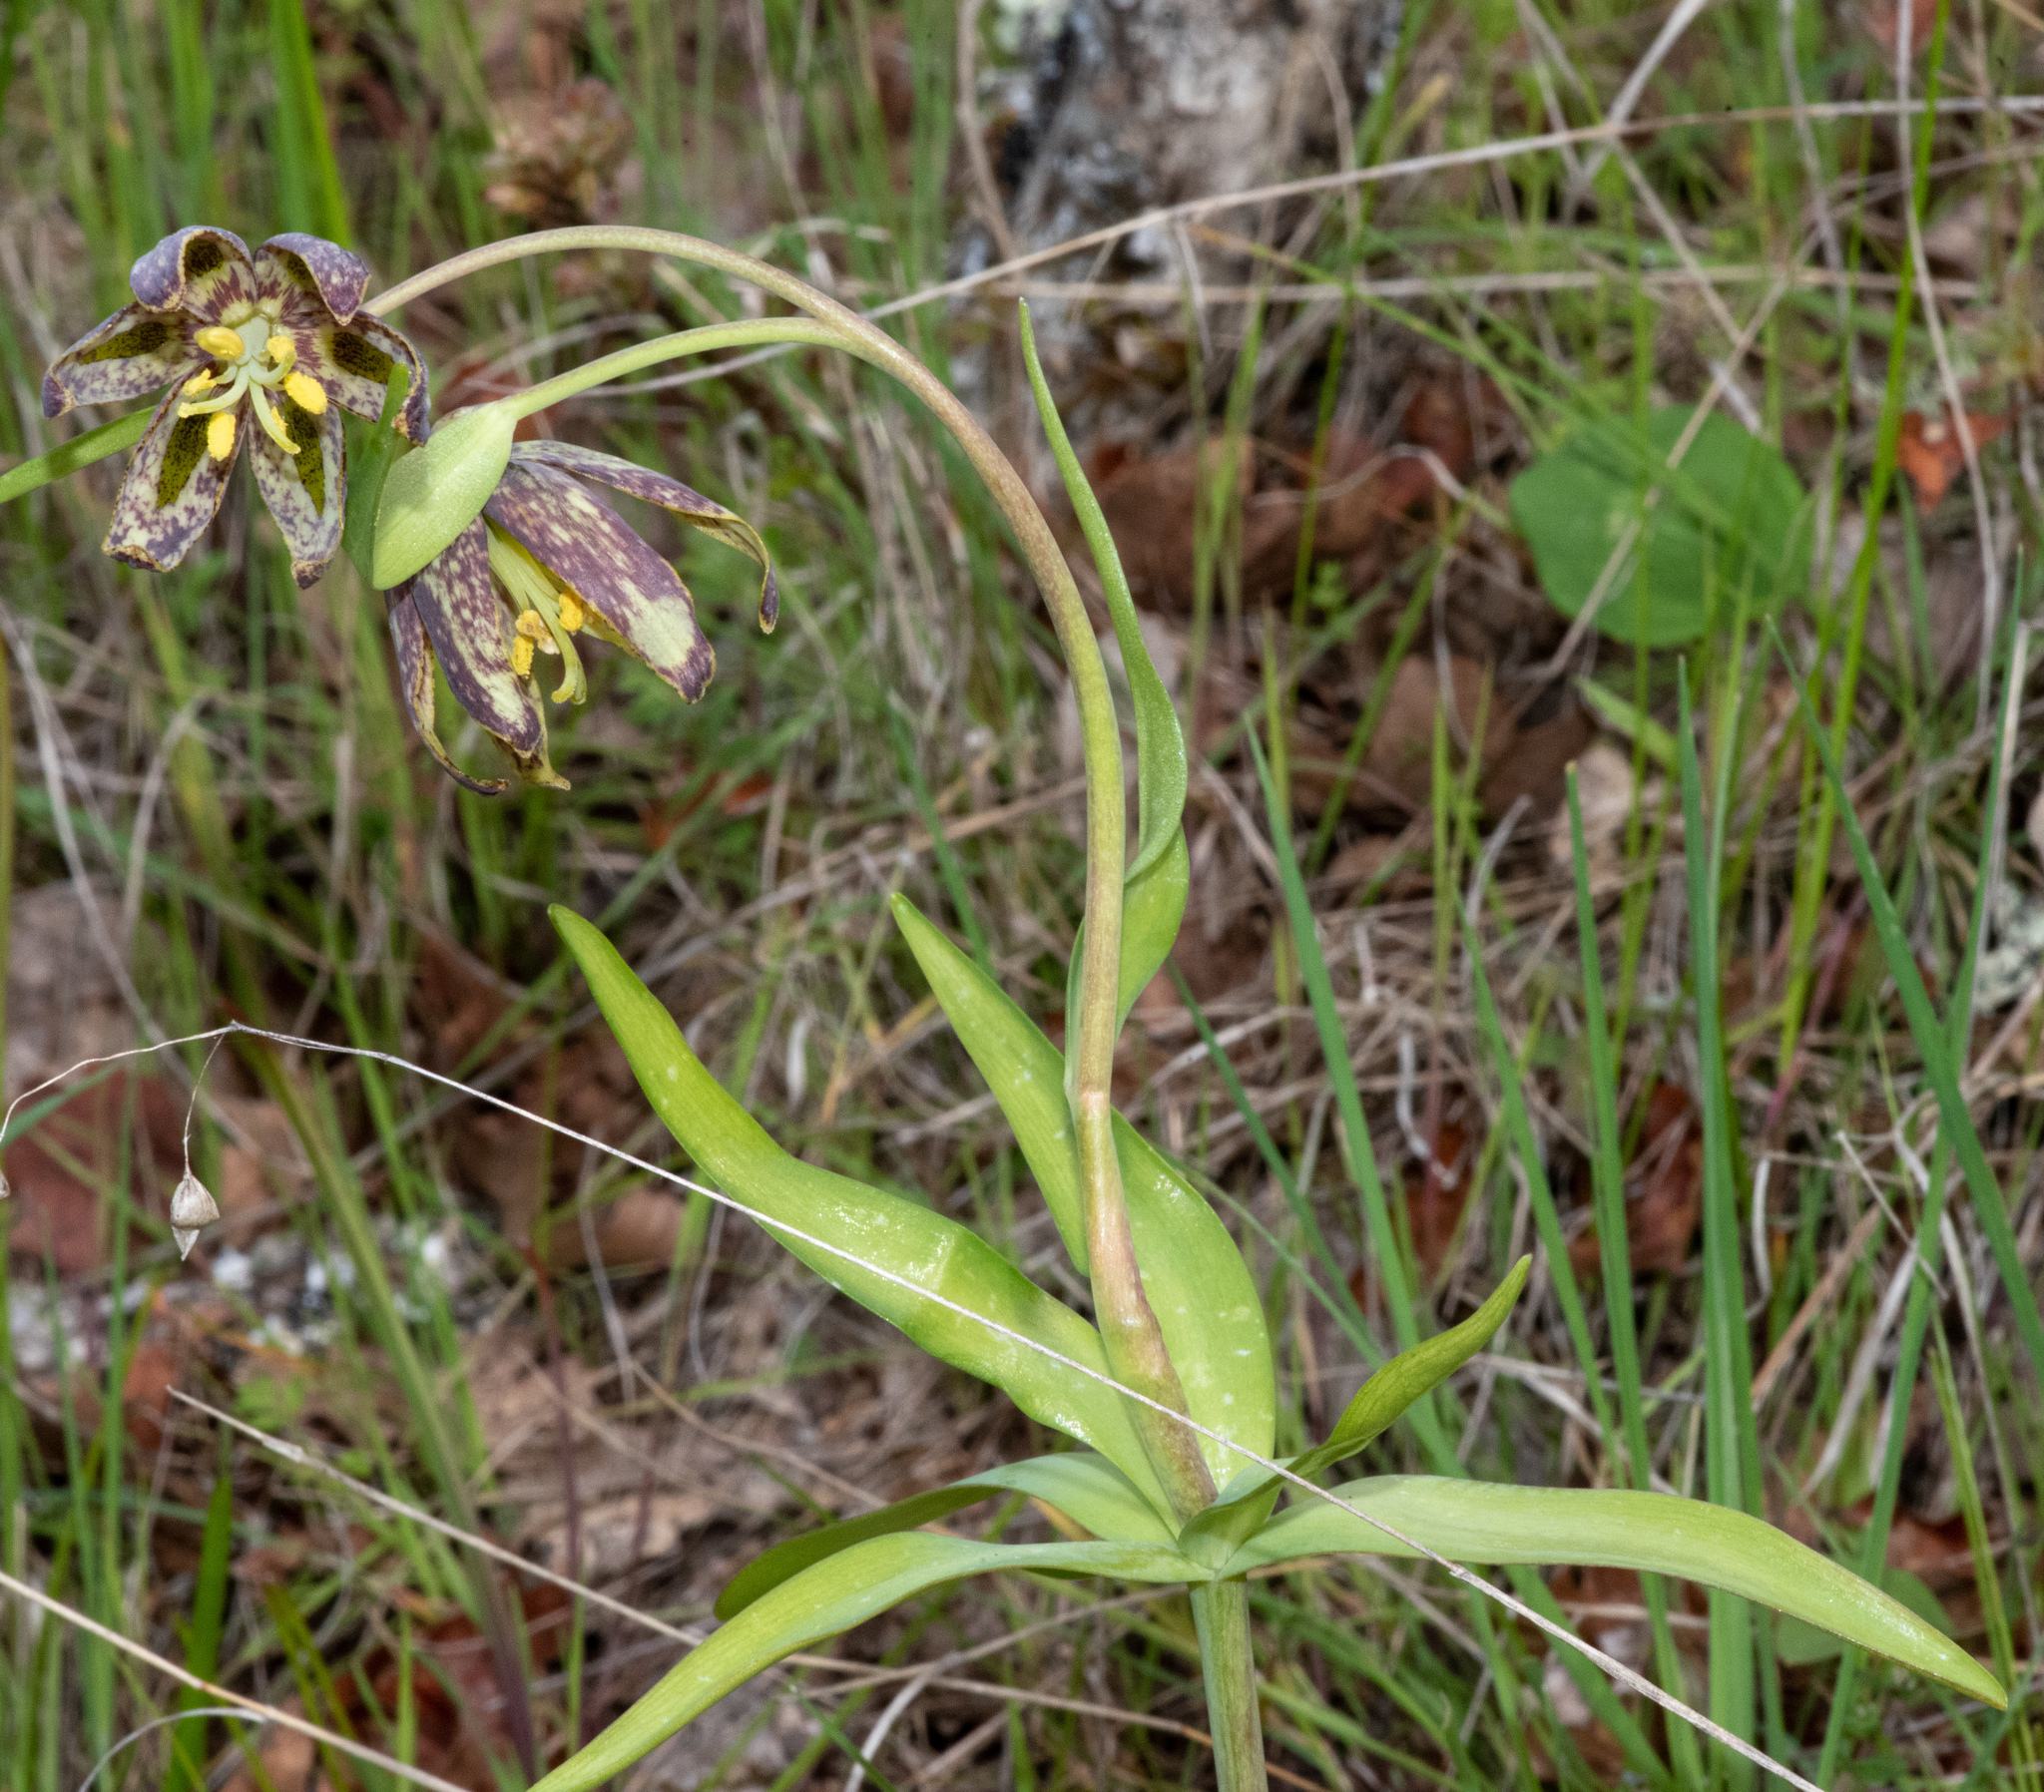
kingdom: Plantae
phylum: Tracheophyta
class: Liliopsida
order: Liliales
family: Liliaceae
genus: Fritillaria
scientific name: Fritillaria affinis
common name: Ojai fritillary
